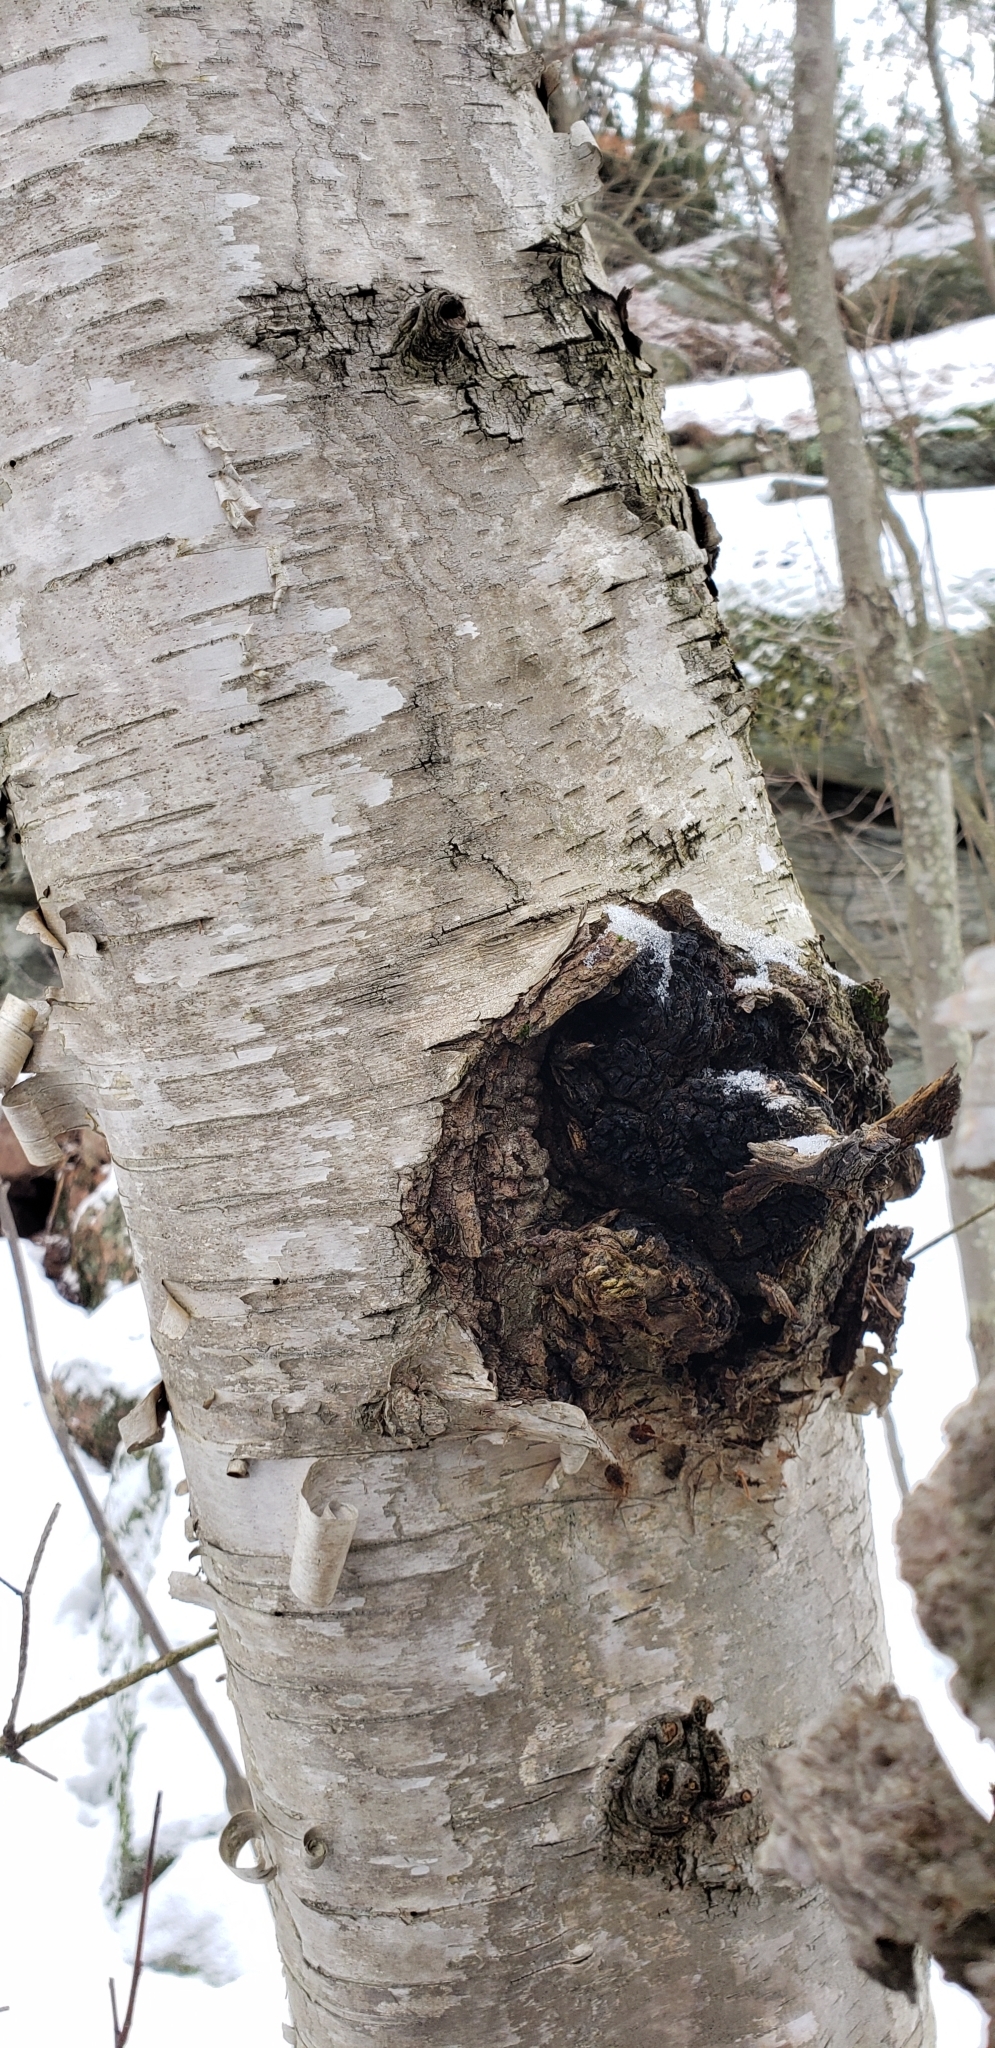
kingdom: Fungi
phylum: Basidiomycota
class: Agaricomycetes
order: Hymenochaetales
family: Hymenochaetaceae
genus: Inonotus
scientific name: Inonotus obliquus
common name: Chaga
